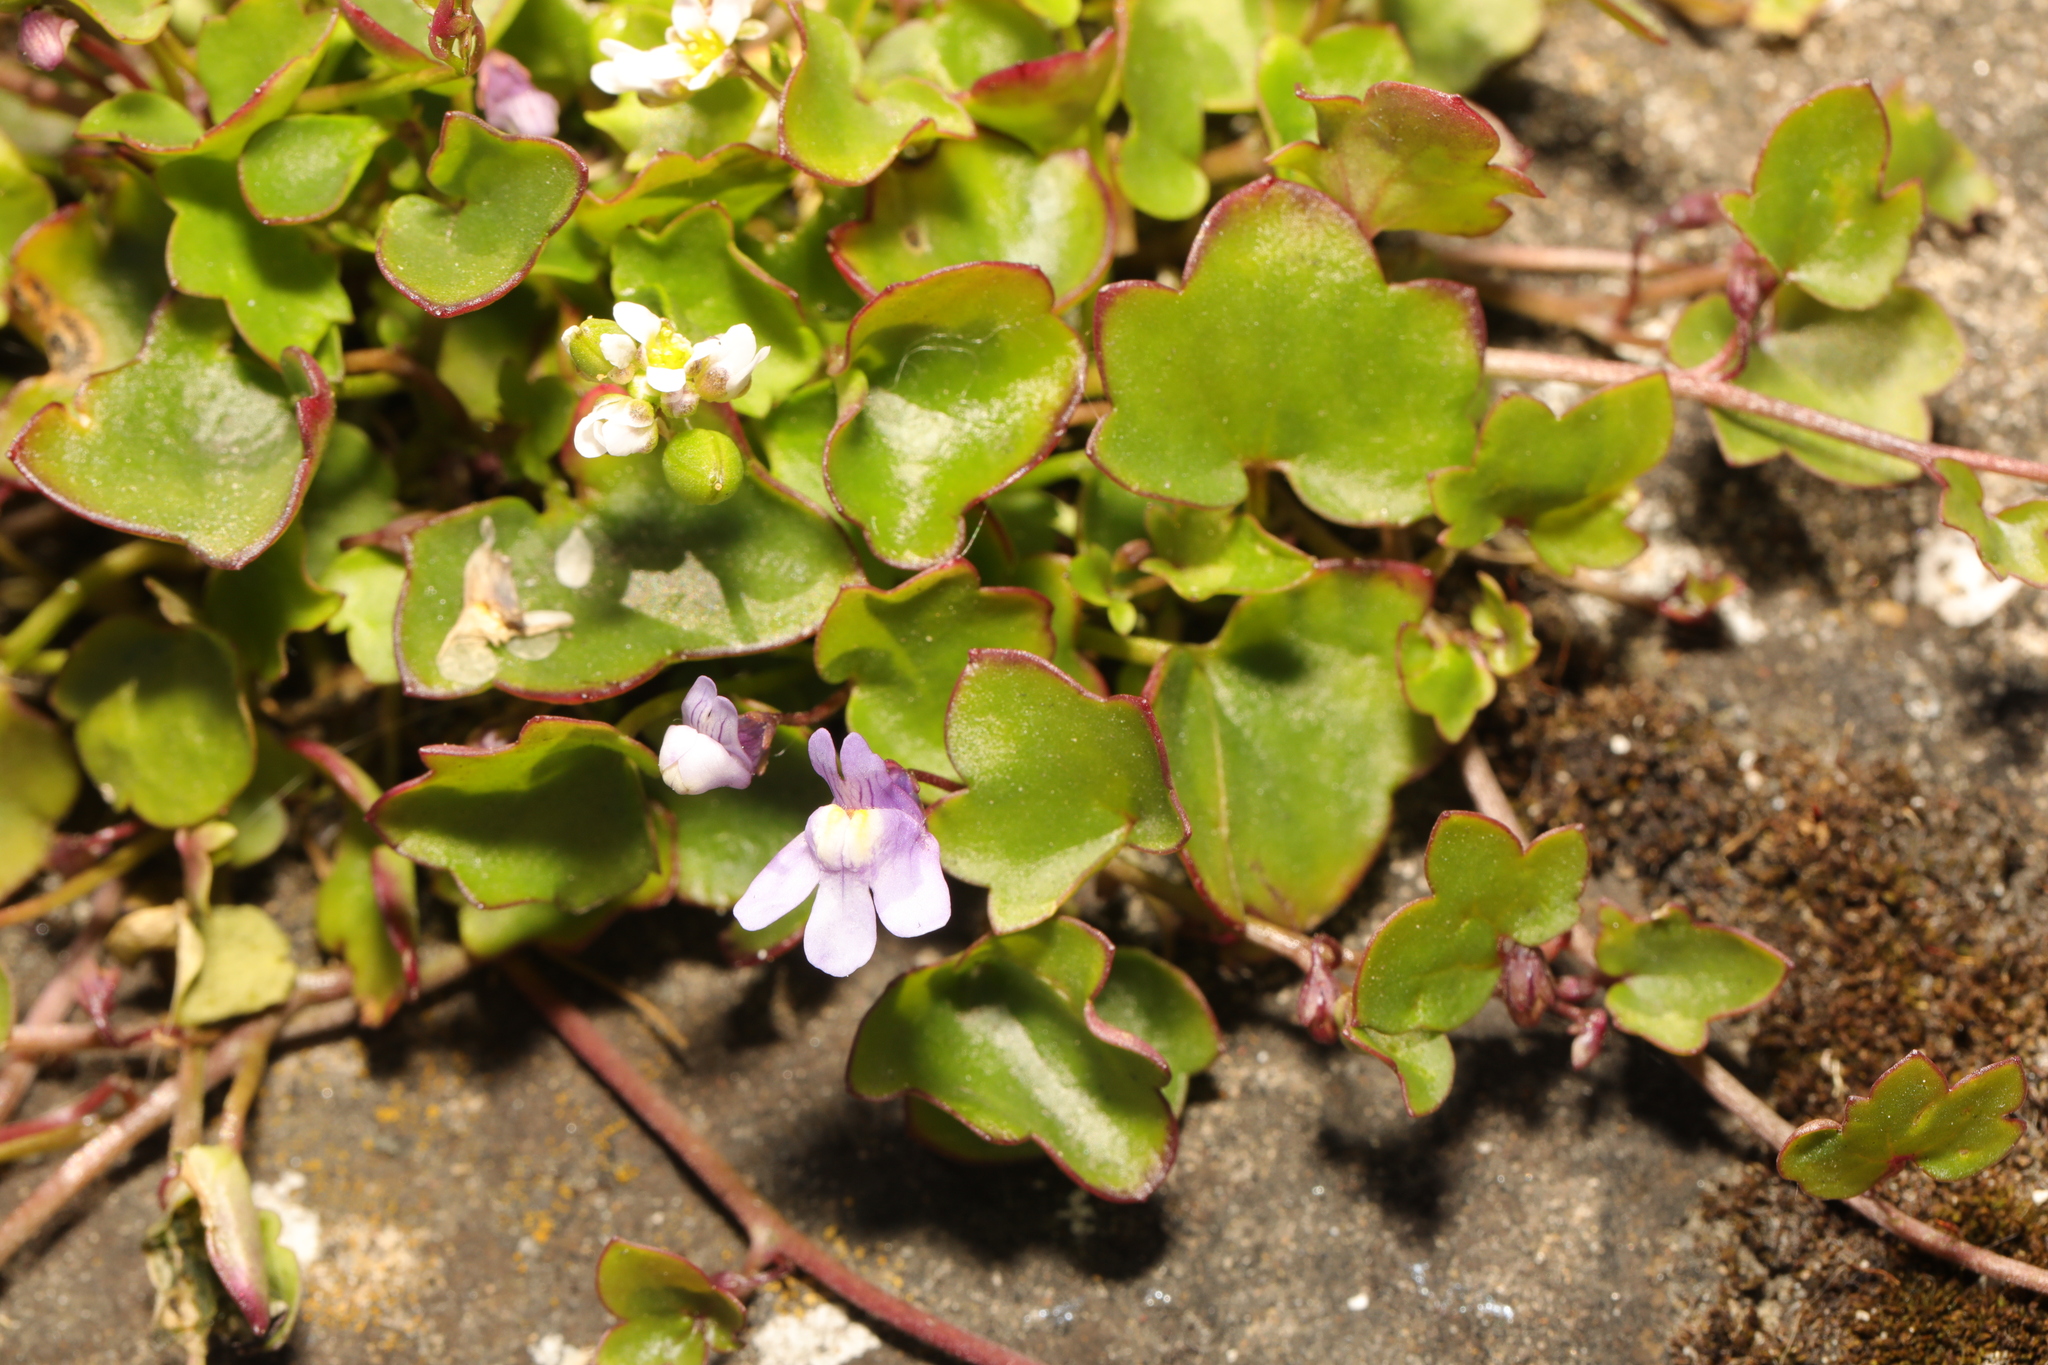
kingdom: Plantae
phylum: Tracheophyta
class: Magnoliopsida
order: Lamiales
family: Plantaginaceae
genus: Cymbalaria
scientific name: Cymbalaria muralis
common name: Ivy-leaved toadflax
